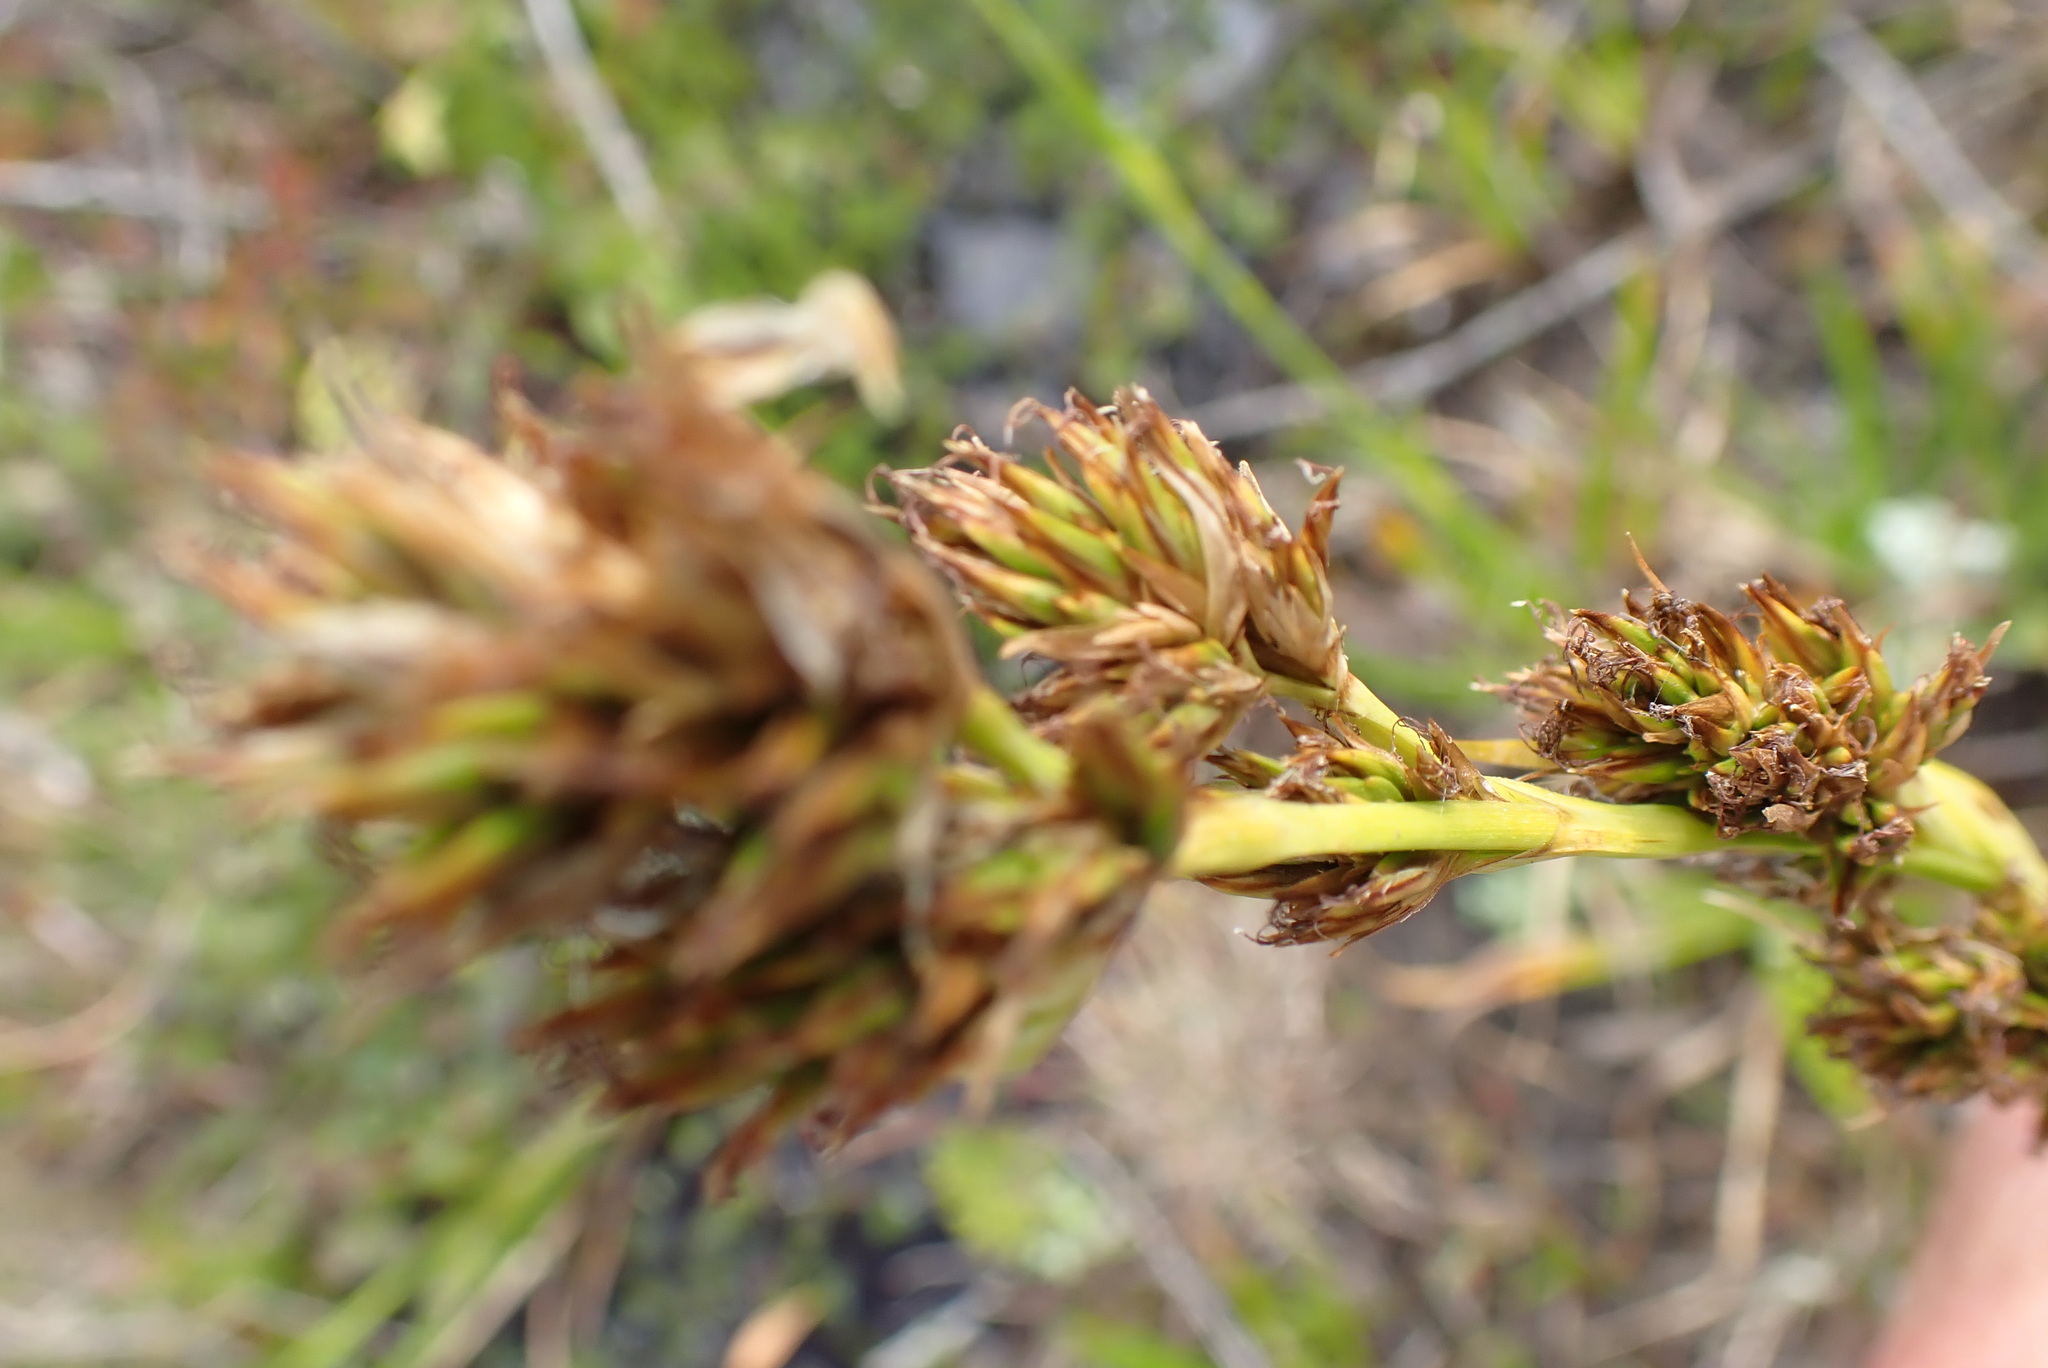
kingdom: Plantae
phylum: Tracheophyta
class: Liliopsida
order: Poales
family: Cyperaceae
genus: Carpha
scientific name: Carpha glomerata
